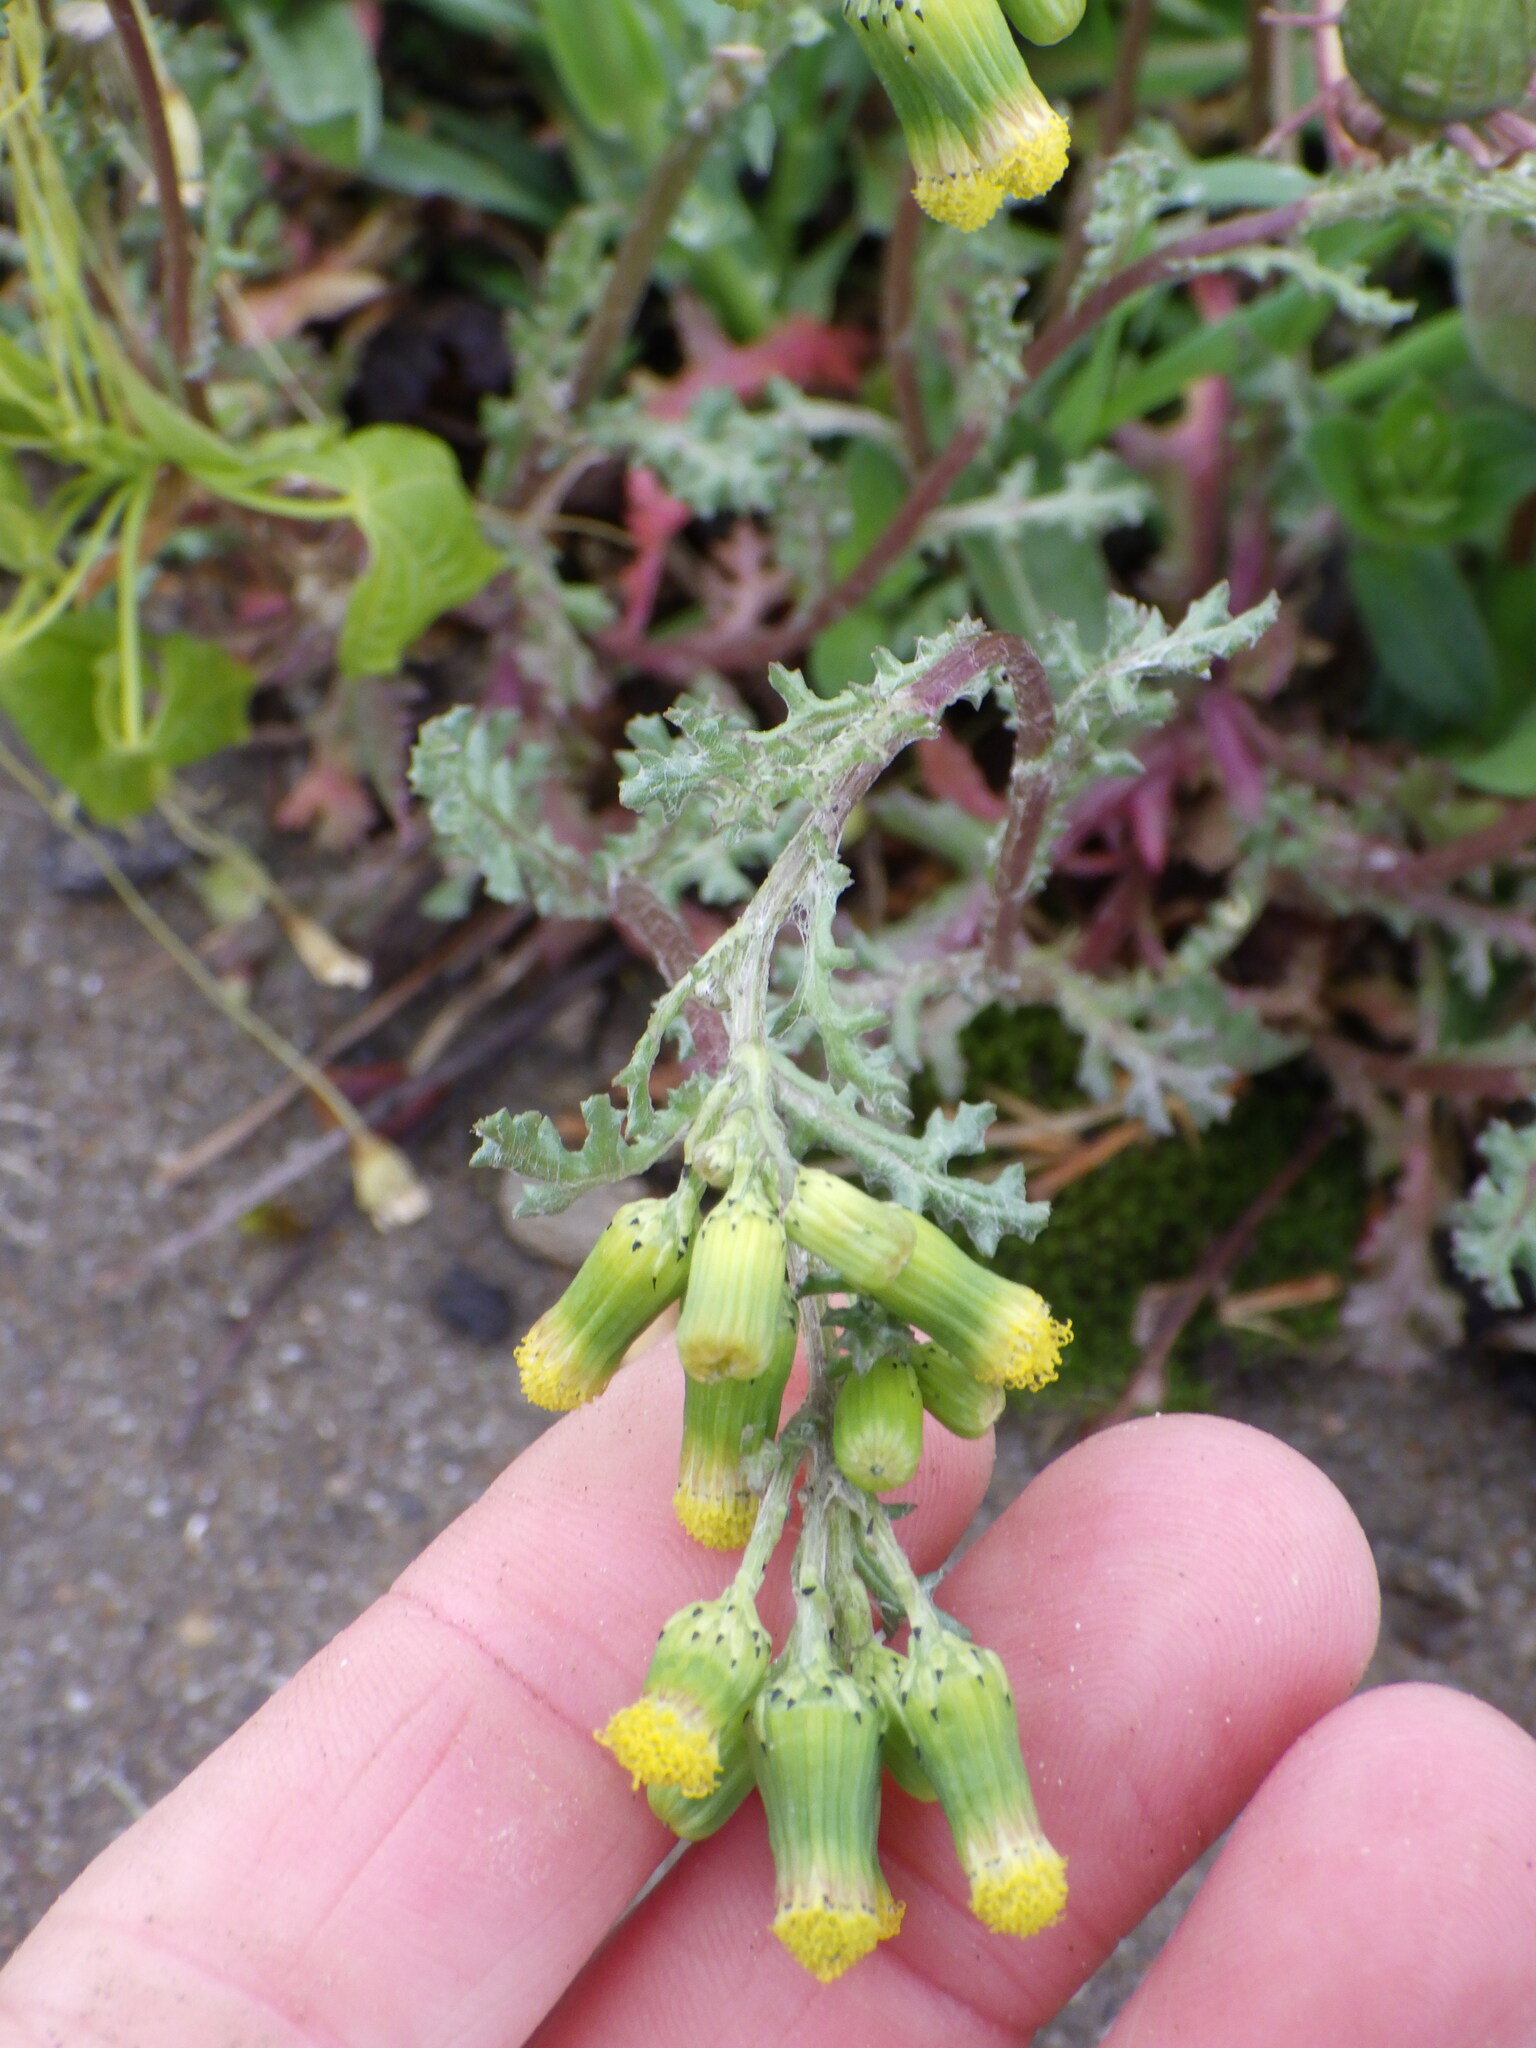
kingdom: Plantae
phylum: Tracheophyta
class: Magnoliopsida
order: Asterales
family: Asteraceae
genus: Senecio
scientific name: Senecio vulgaris
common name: Old-man-in-the-spring
